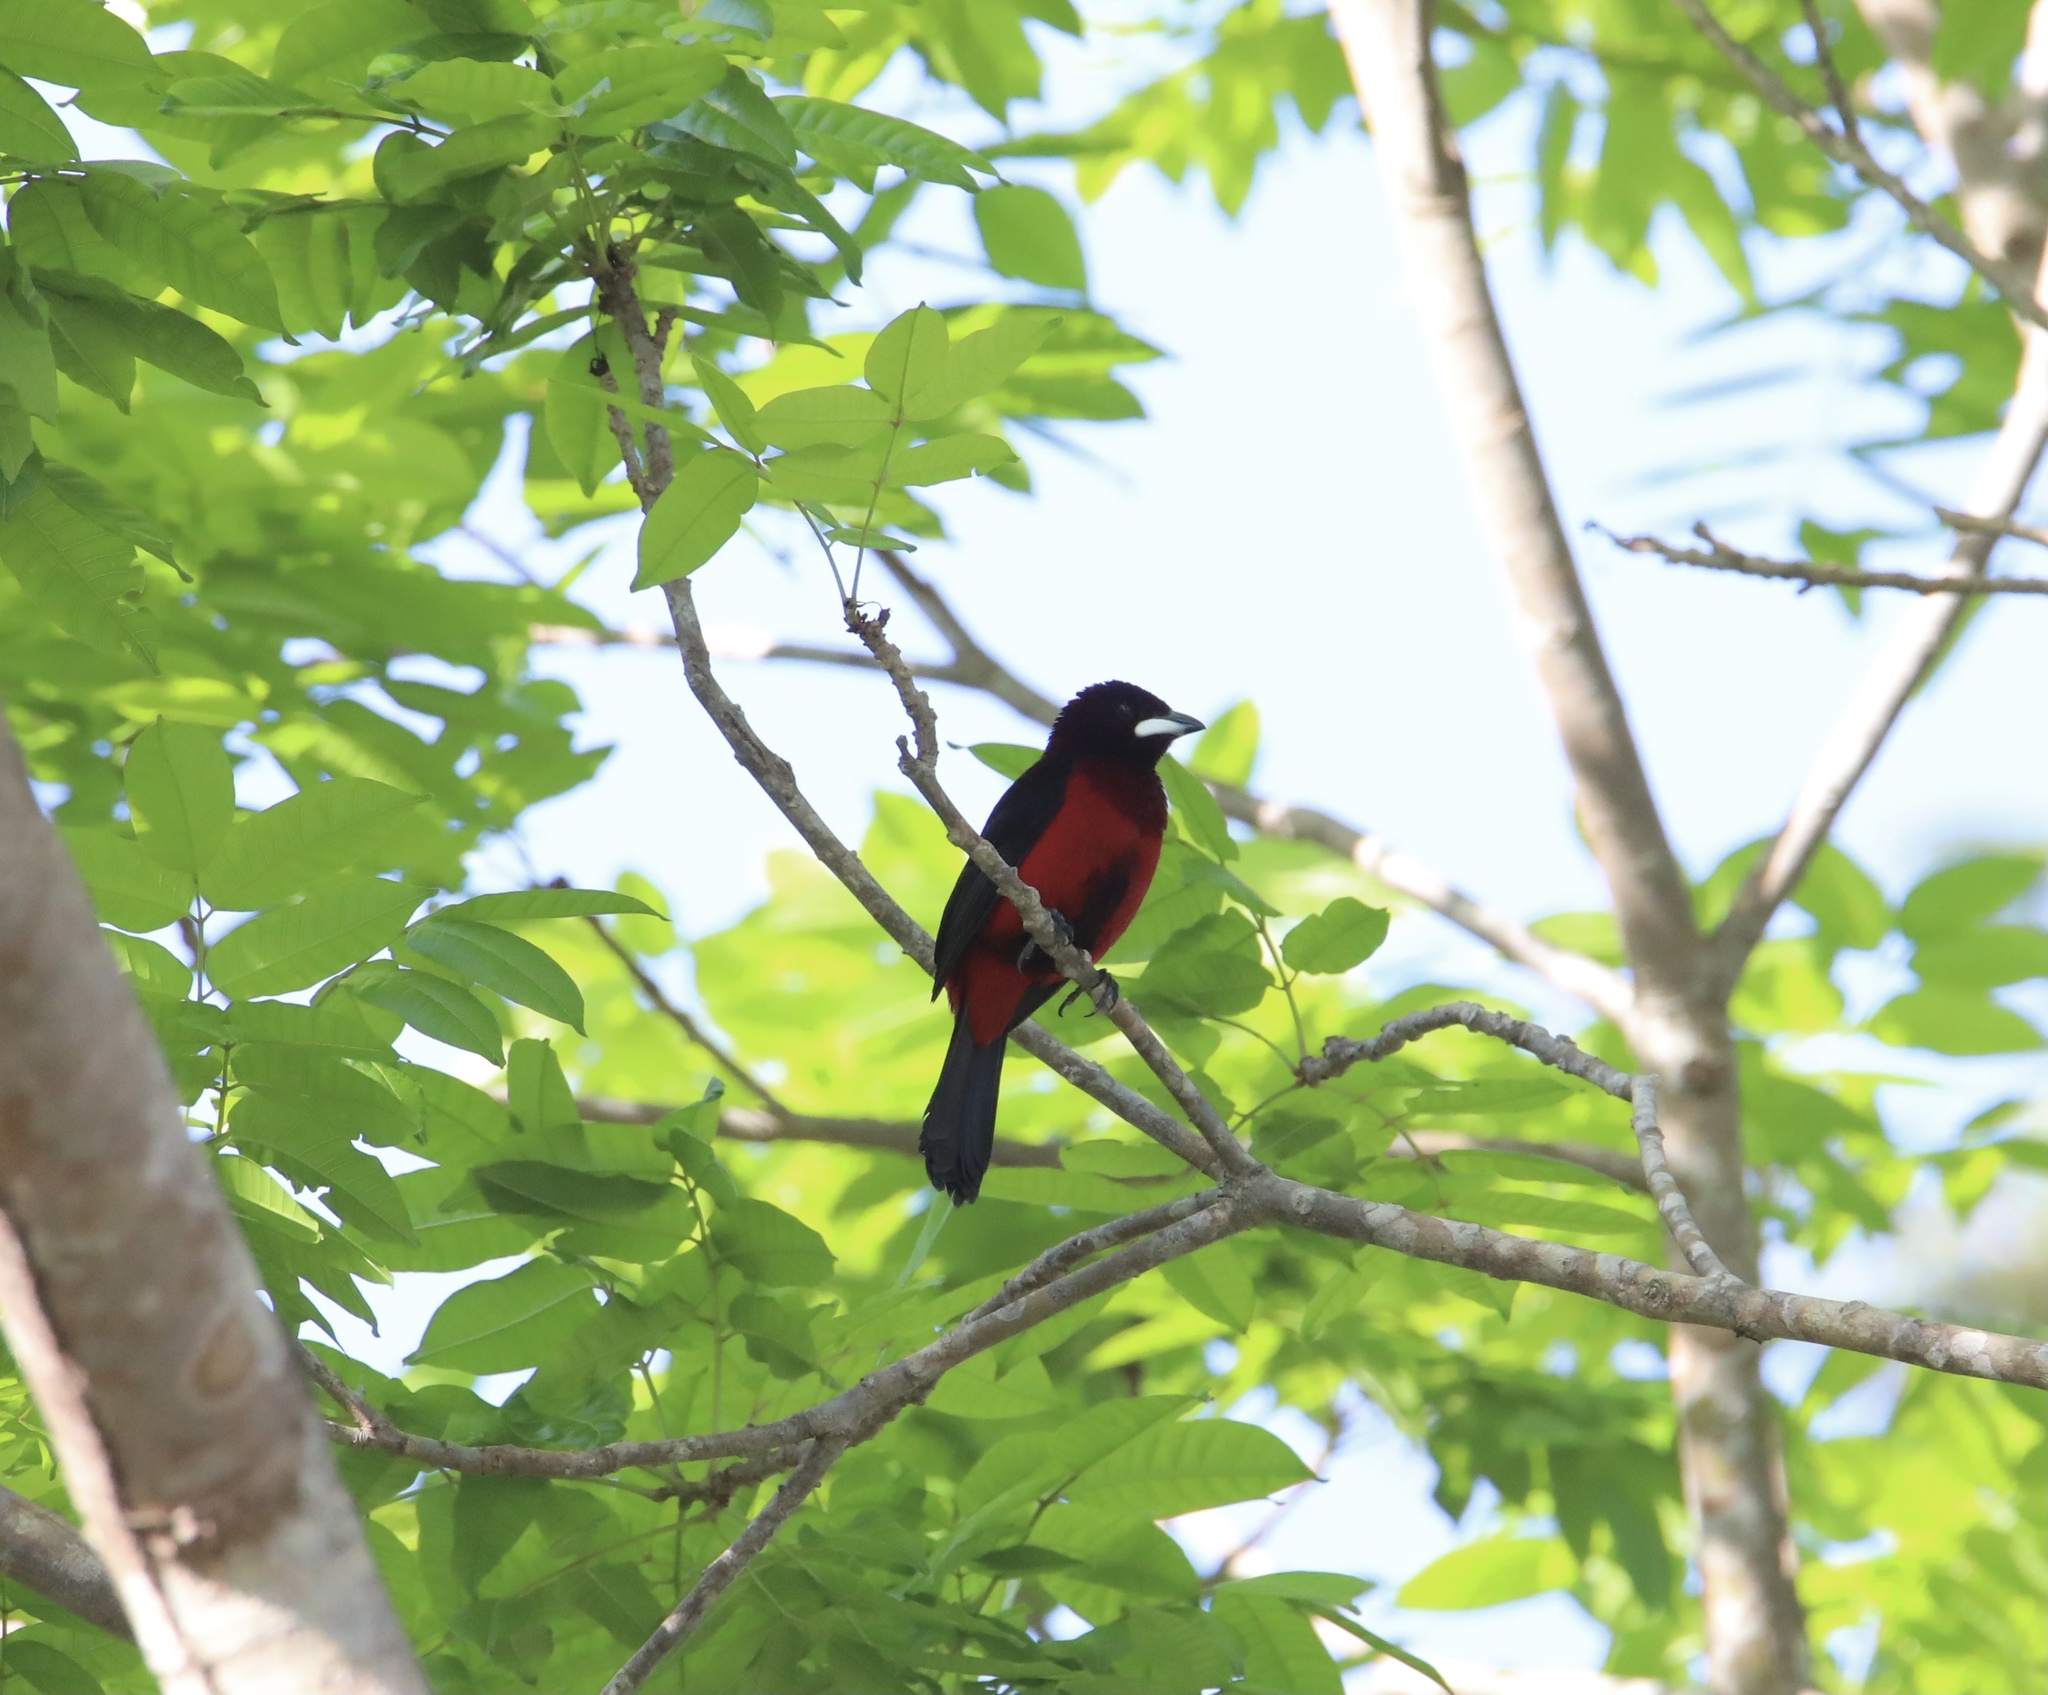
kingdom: Animalia
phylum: Chordata
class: Aves
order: Passeriformes
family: Thraupidae
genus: Ramphocelus
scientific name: Ramphocelus dimidiatus
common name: Crimson-backed tanager
